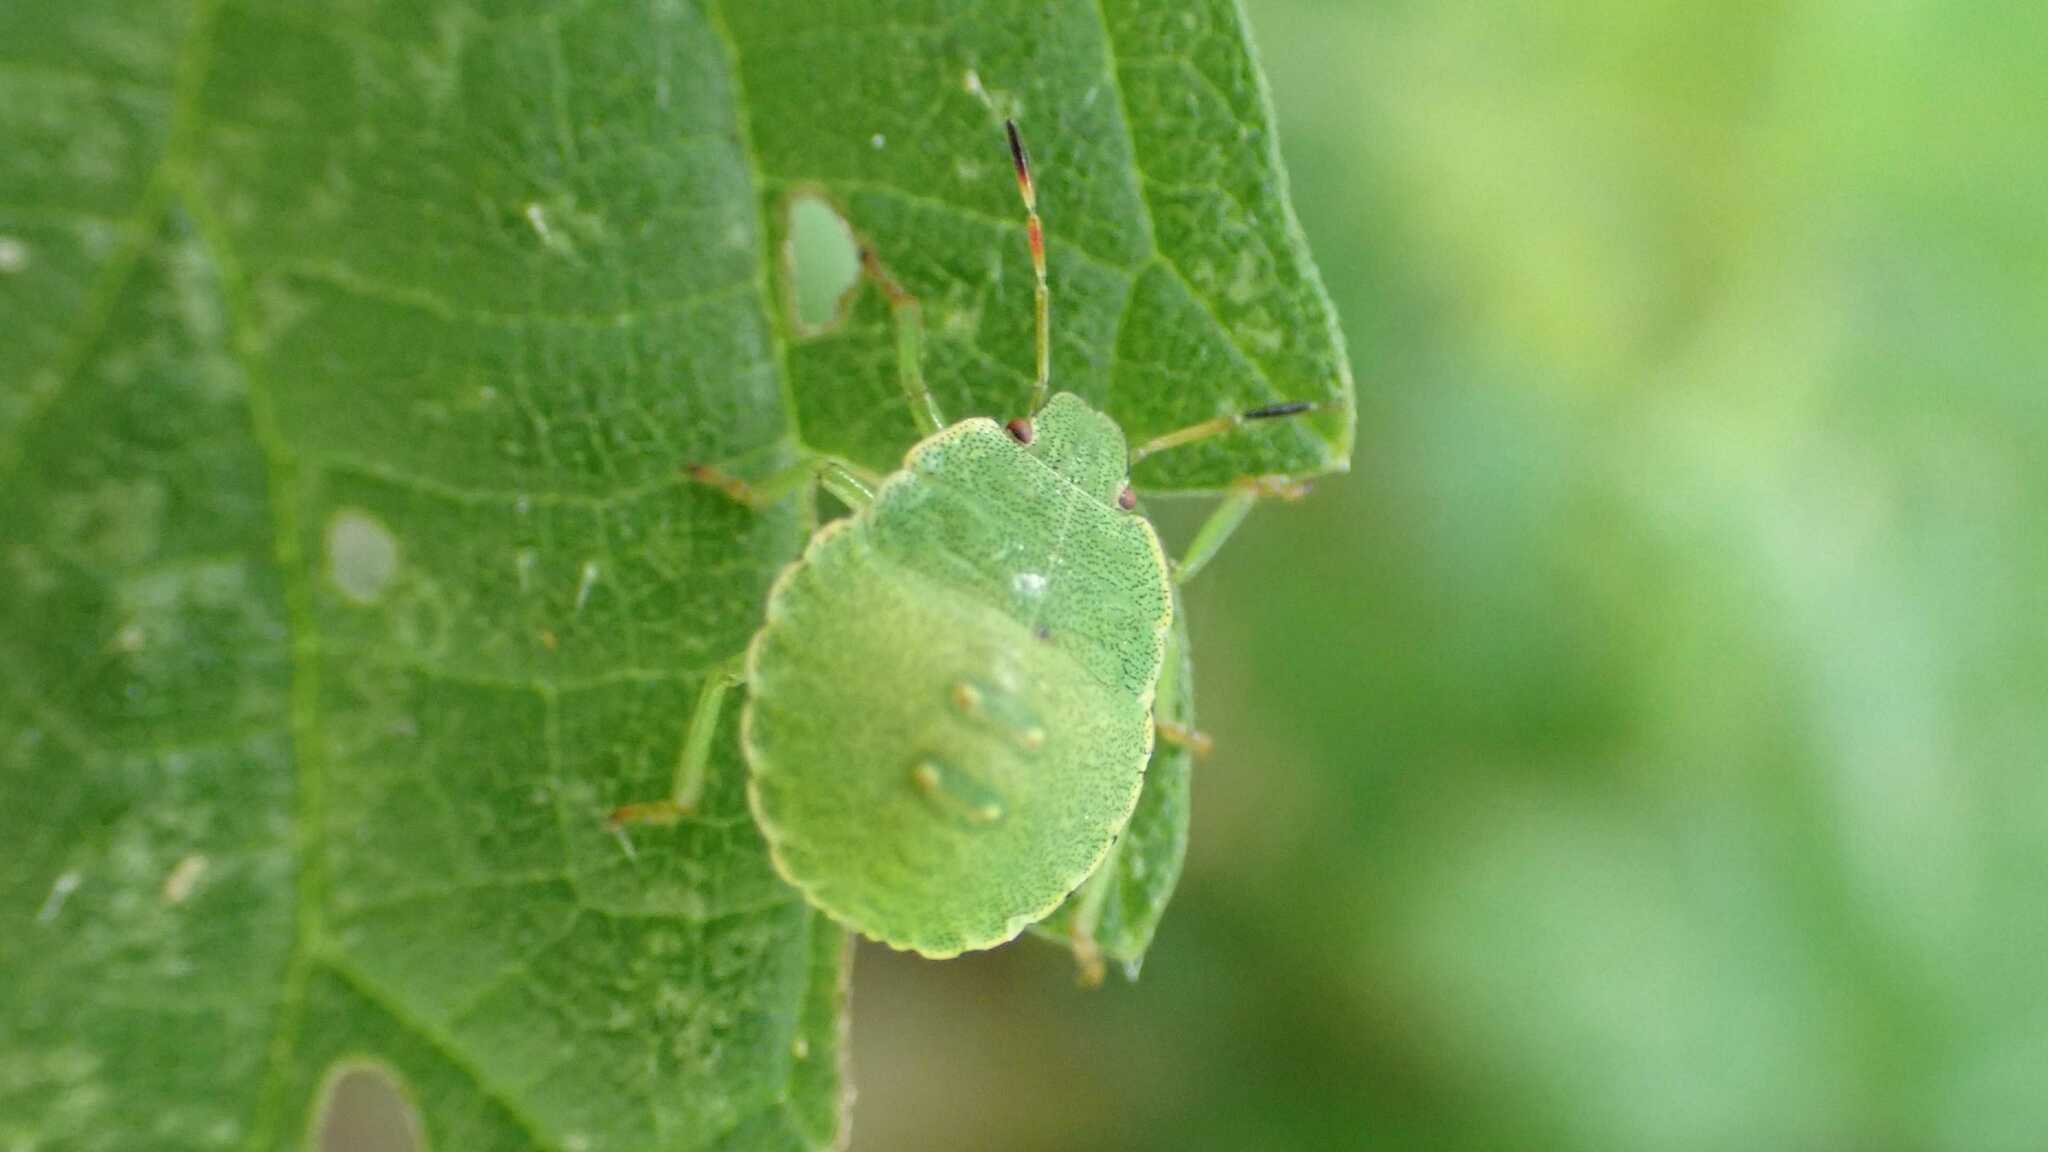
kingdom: Animalia
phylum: Arthropoda
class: Insecta
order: Hemiptera
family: Pentatomidae
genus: Palomena
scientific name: Palomena prasina
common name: Green shieldbug
